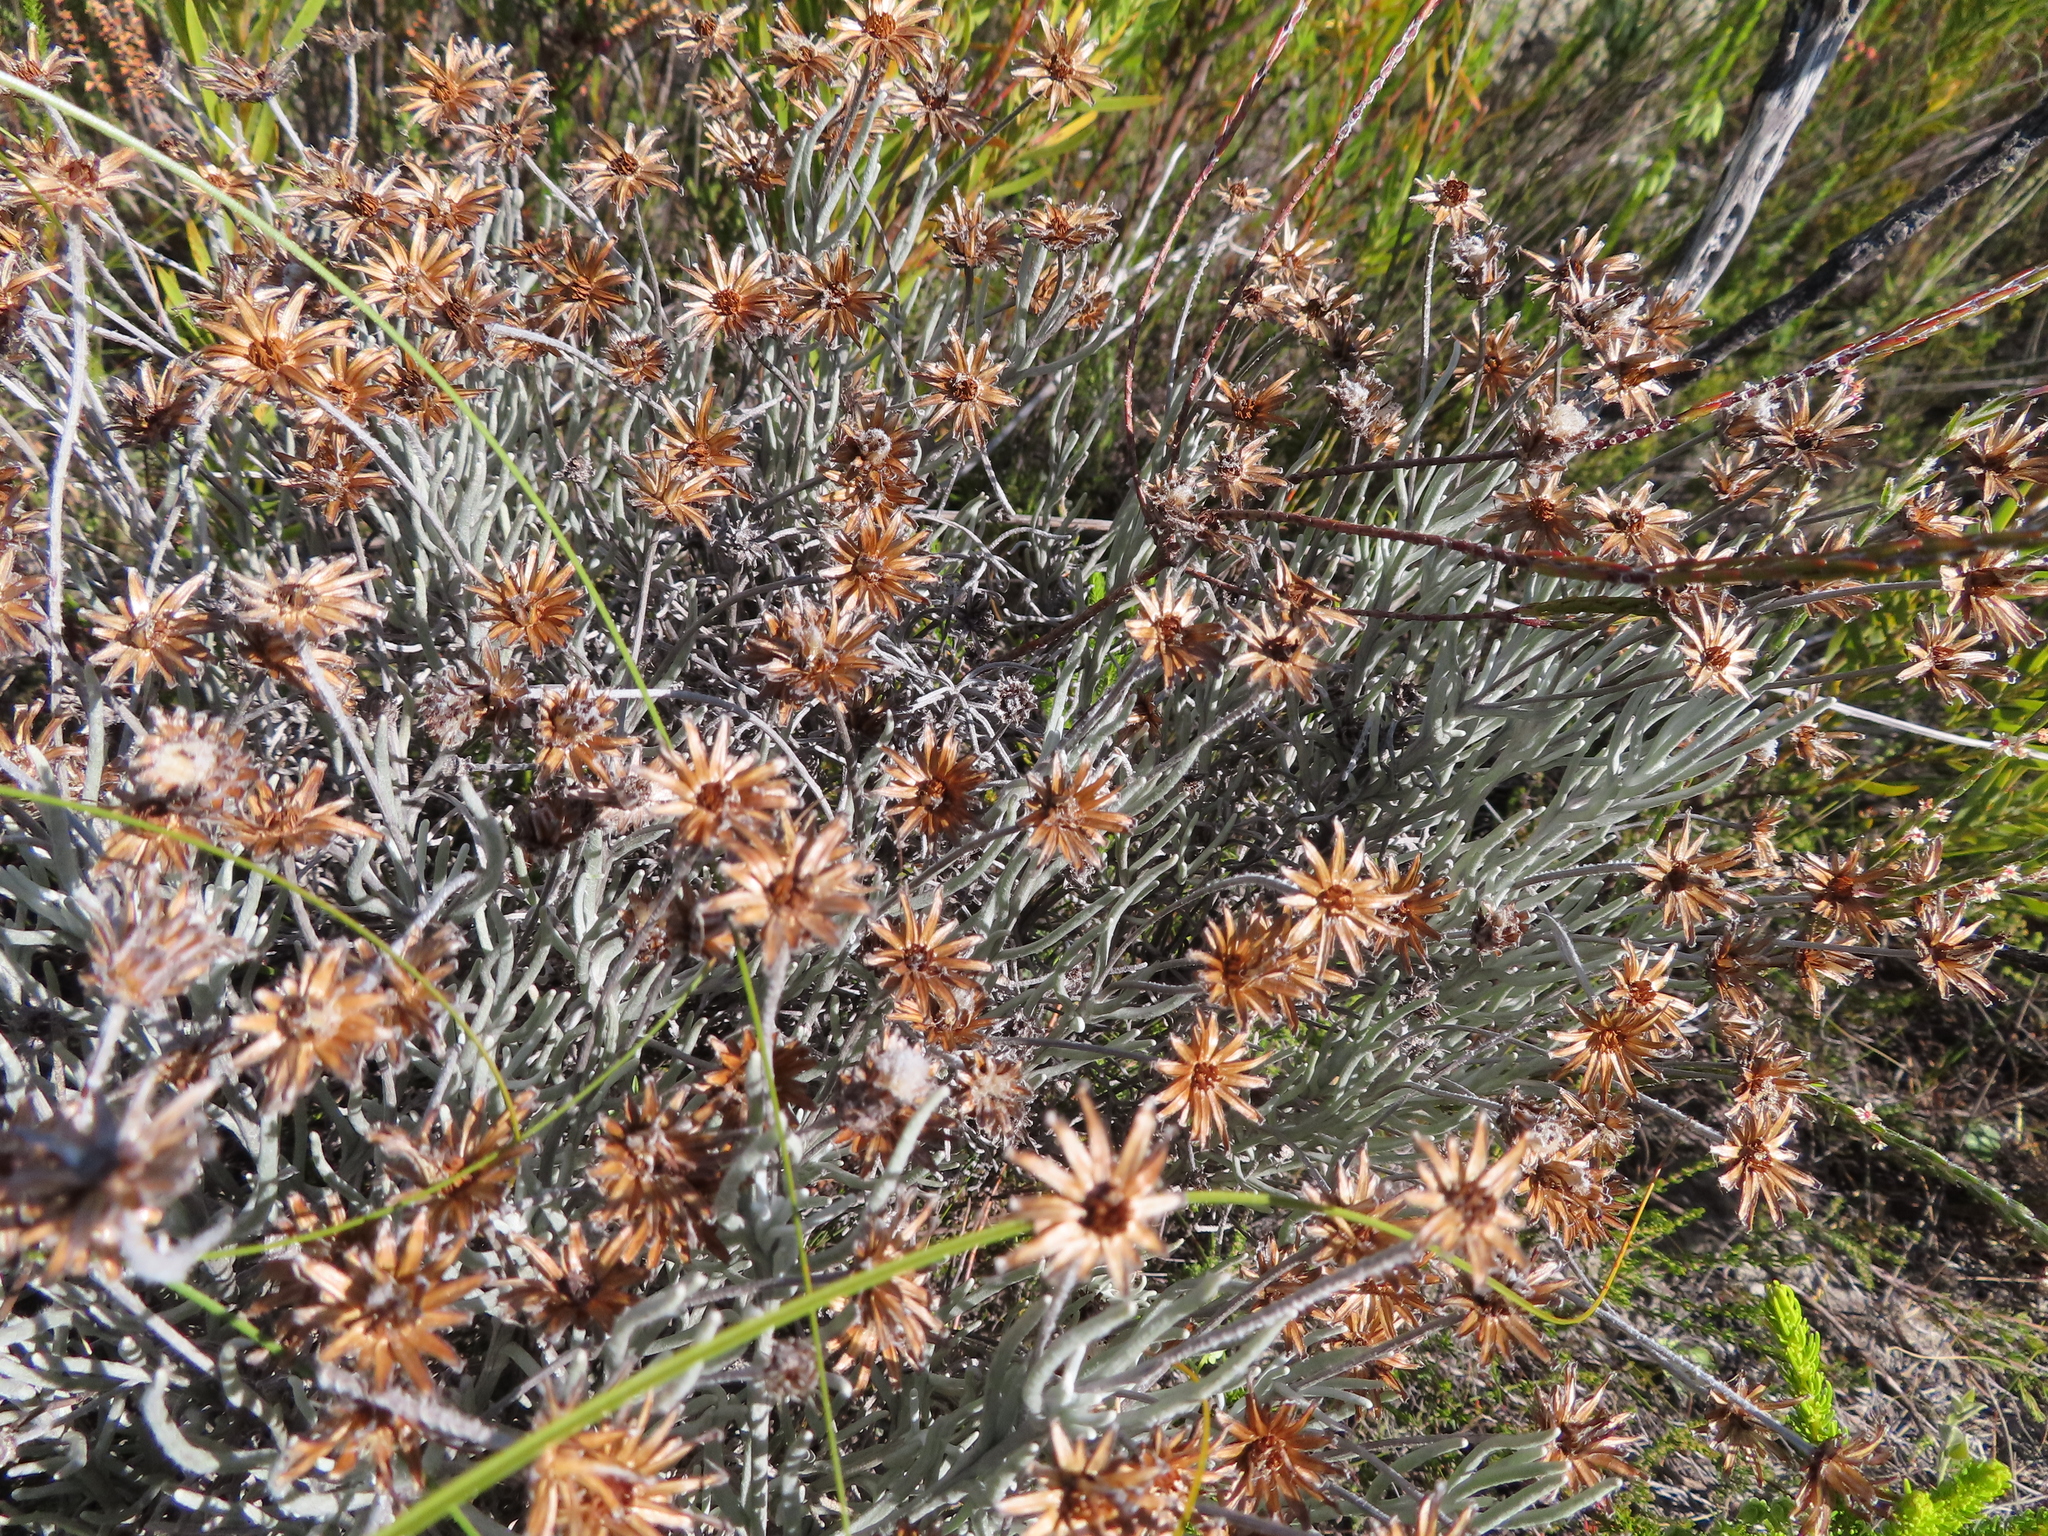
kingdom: Plantae
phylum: Tracheophyta
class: Magnoliopsida
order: Asterales
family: Asteraceae
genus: Syncarpha
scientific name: Syncarpha gnaphaloides
